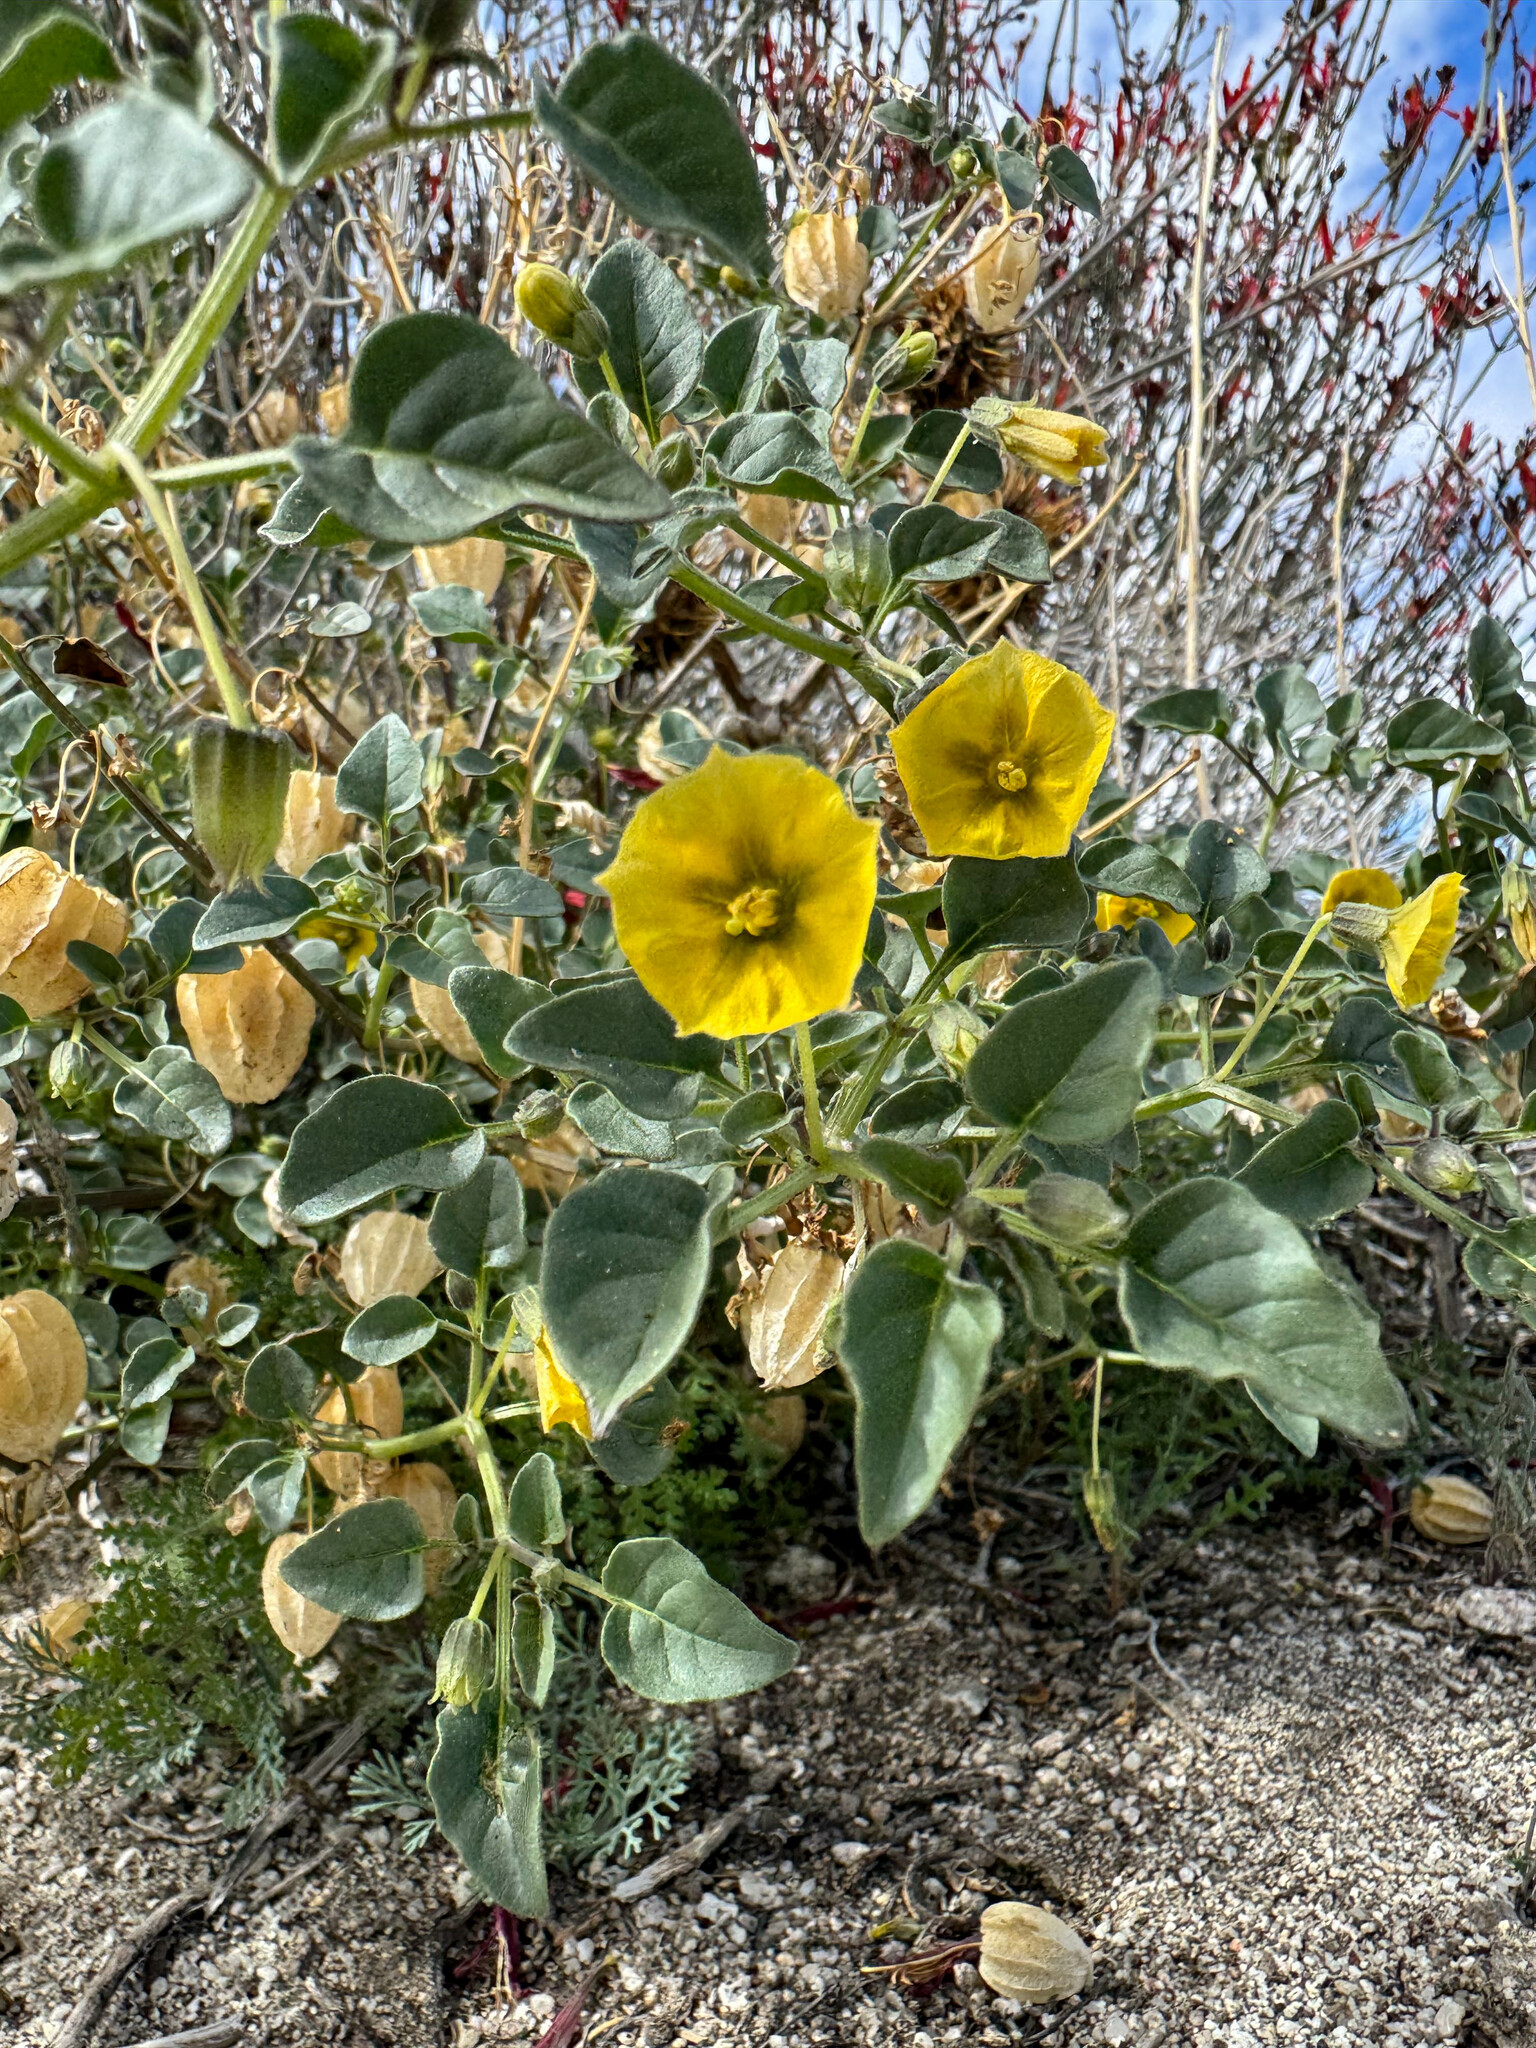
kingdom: Plantae
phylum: Tracheophyta
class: Magnoliopsida
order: Solanales
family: Solanaceae
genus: Physalis
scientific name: Physalis crassifolia
